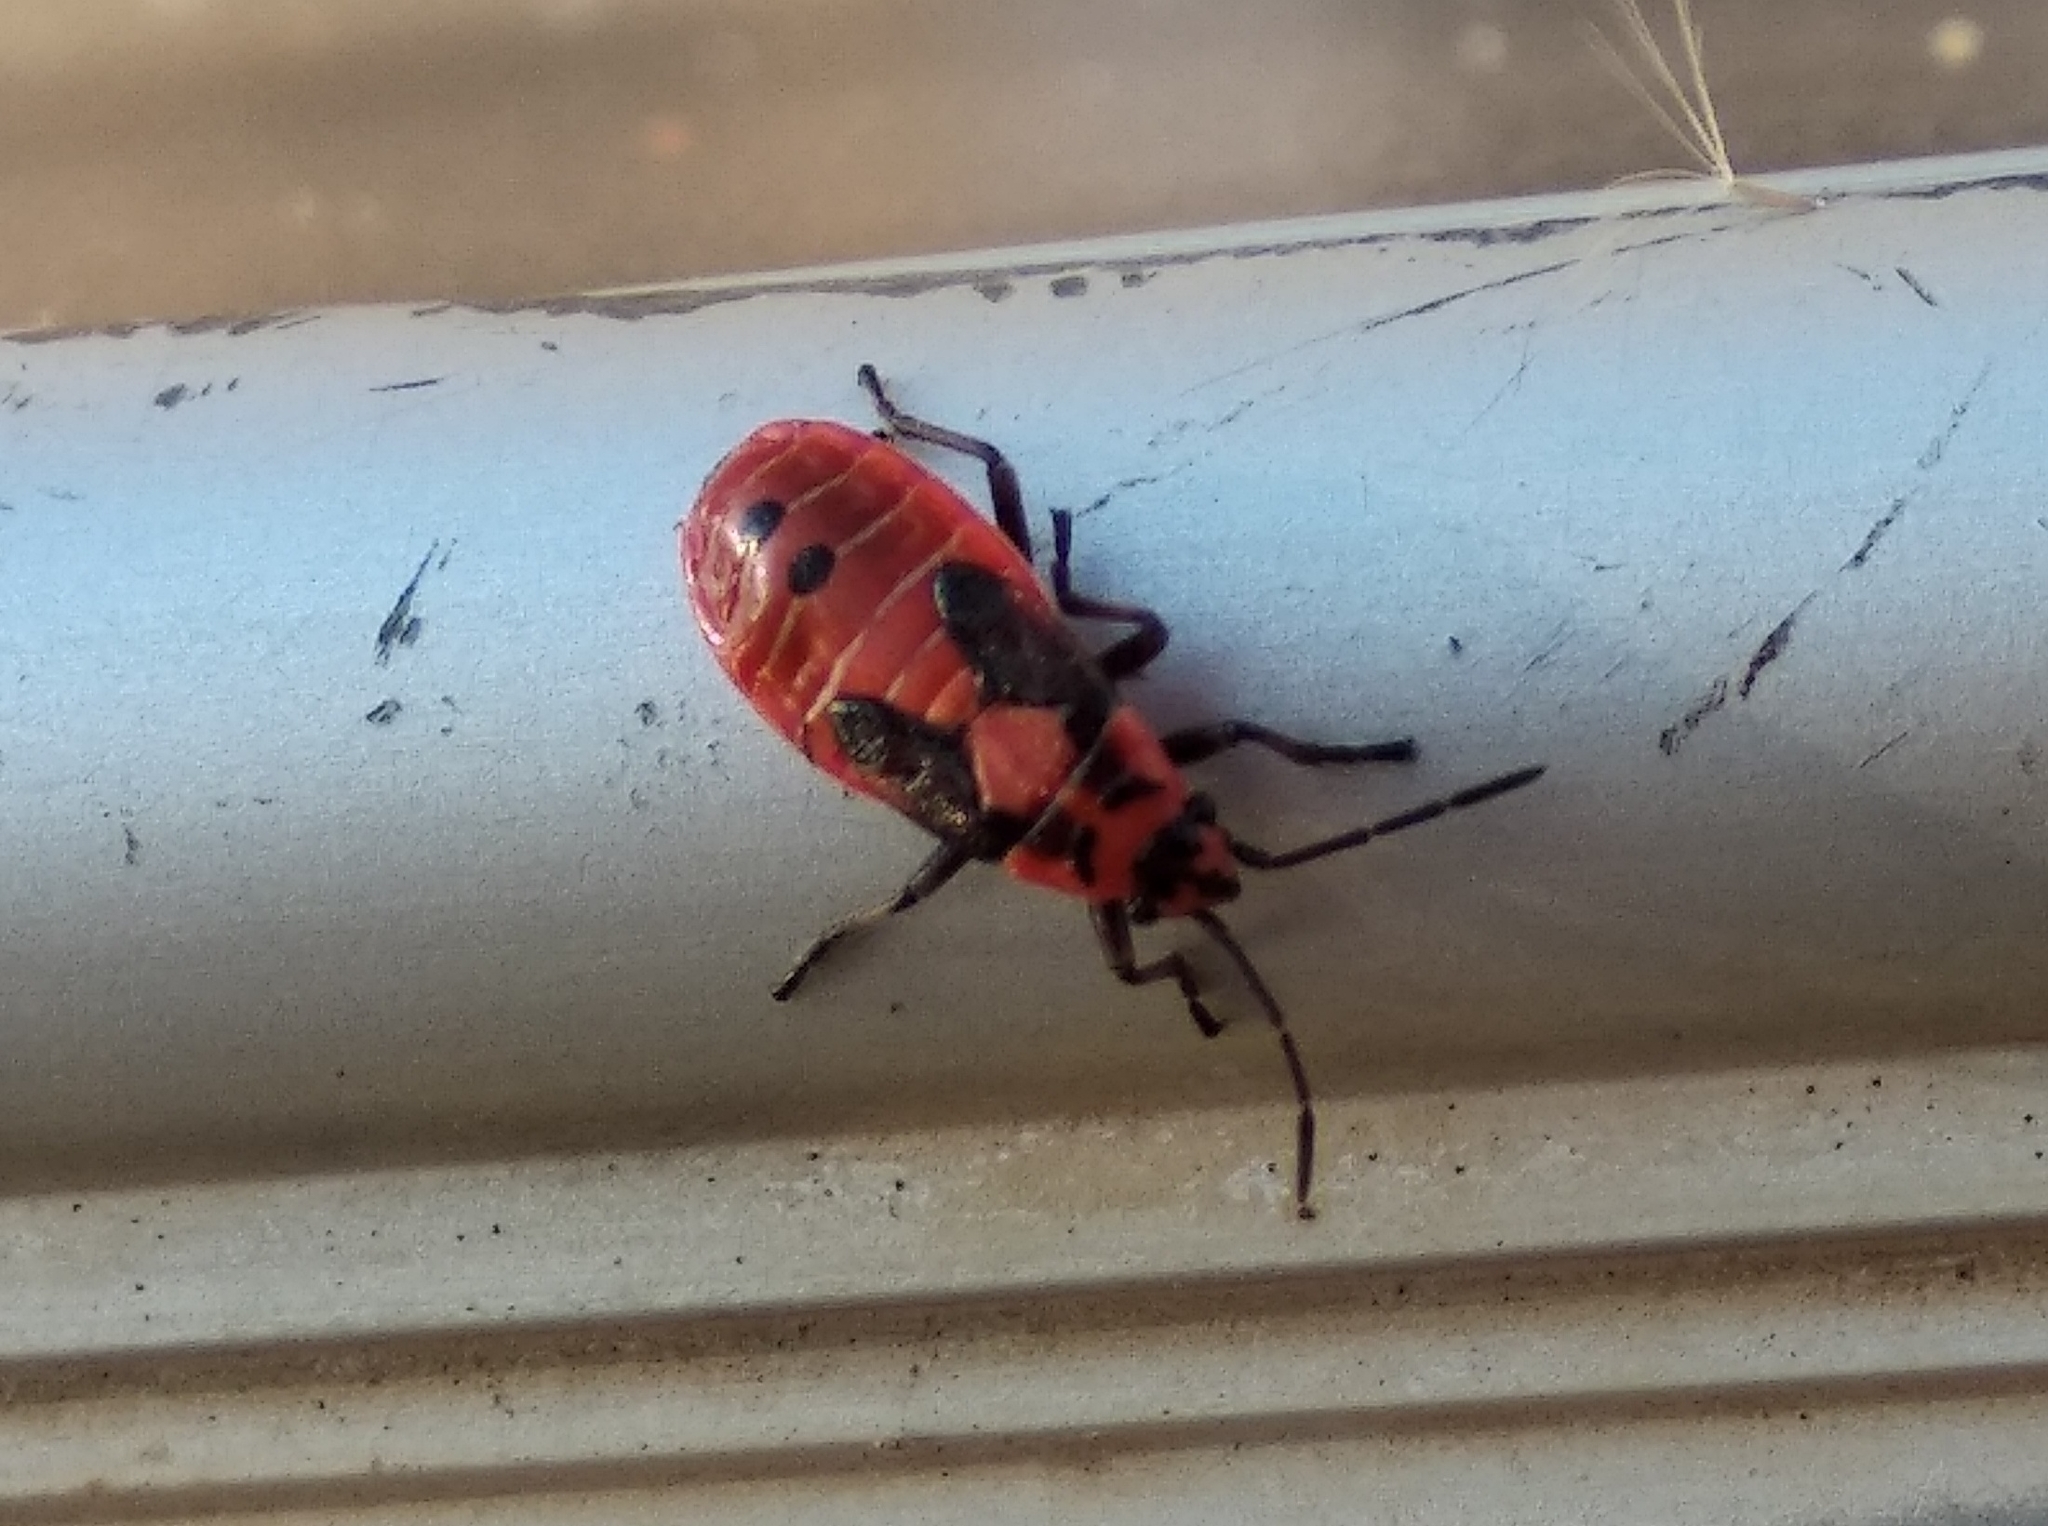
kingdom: Animalia
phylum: Arthropoda
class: Insecta
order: Hemiptera
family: Lygaeidae
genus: Lygaeus
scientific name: Lygaeus equestris
